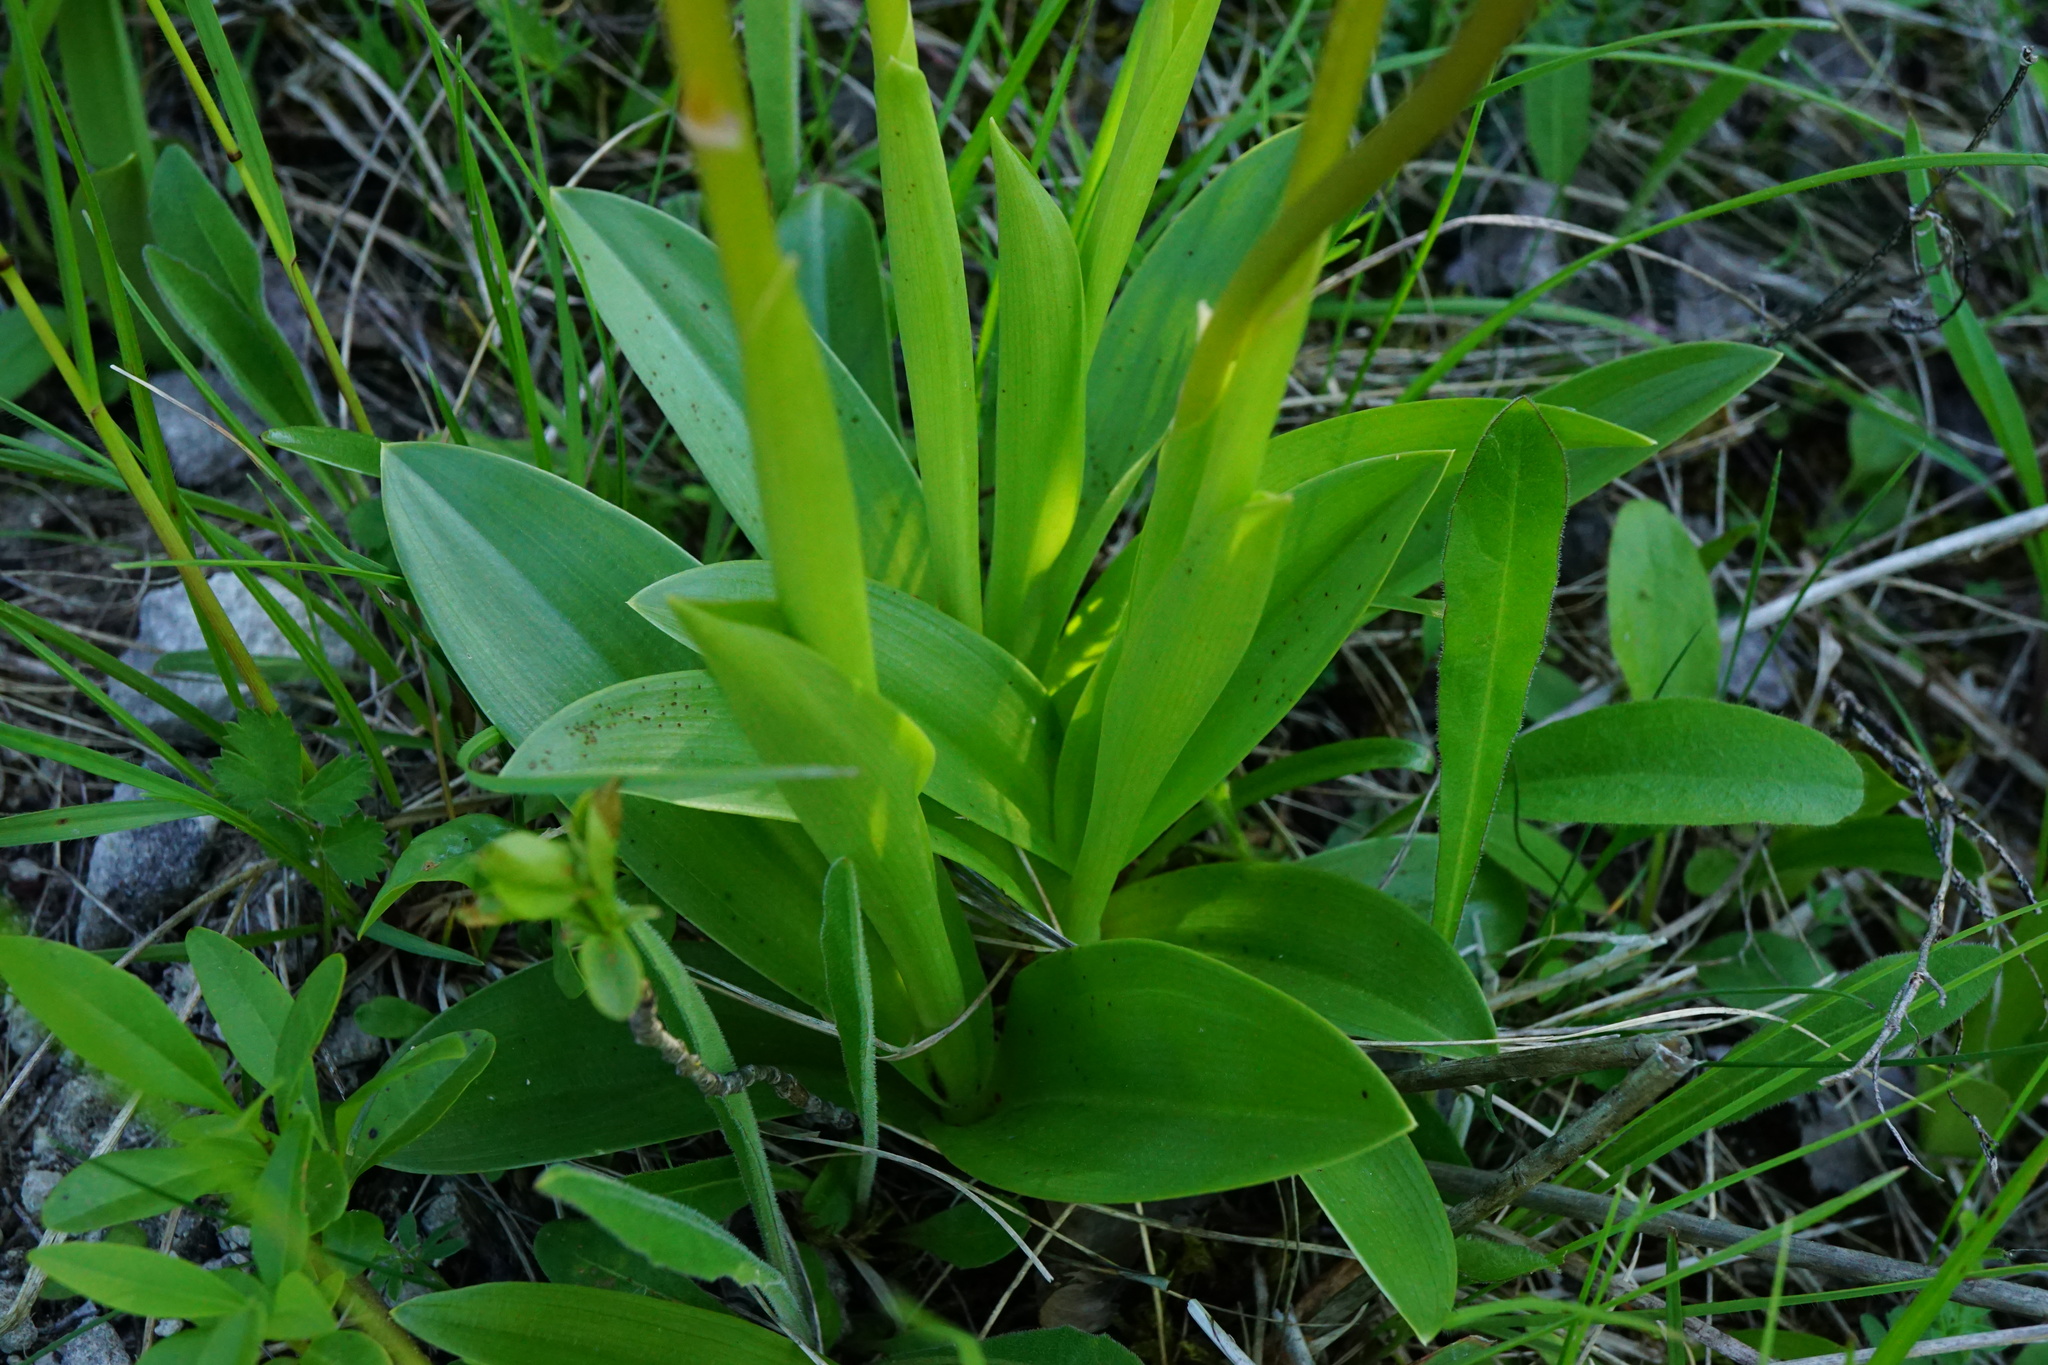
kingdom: Plantae
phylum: Tracheophyta
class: Liliopsida
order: Asparagales
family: Orchidaceae
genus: Orchis
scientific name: Orchis militaris
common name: Military orchid
